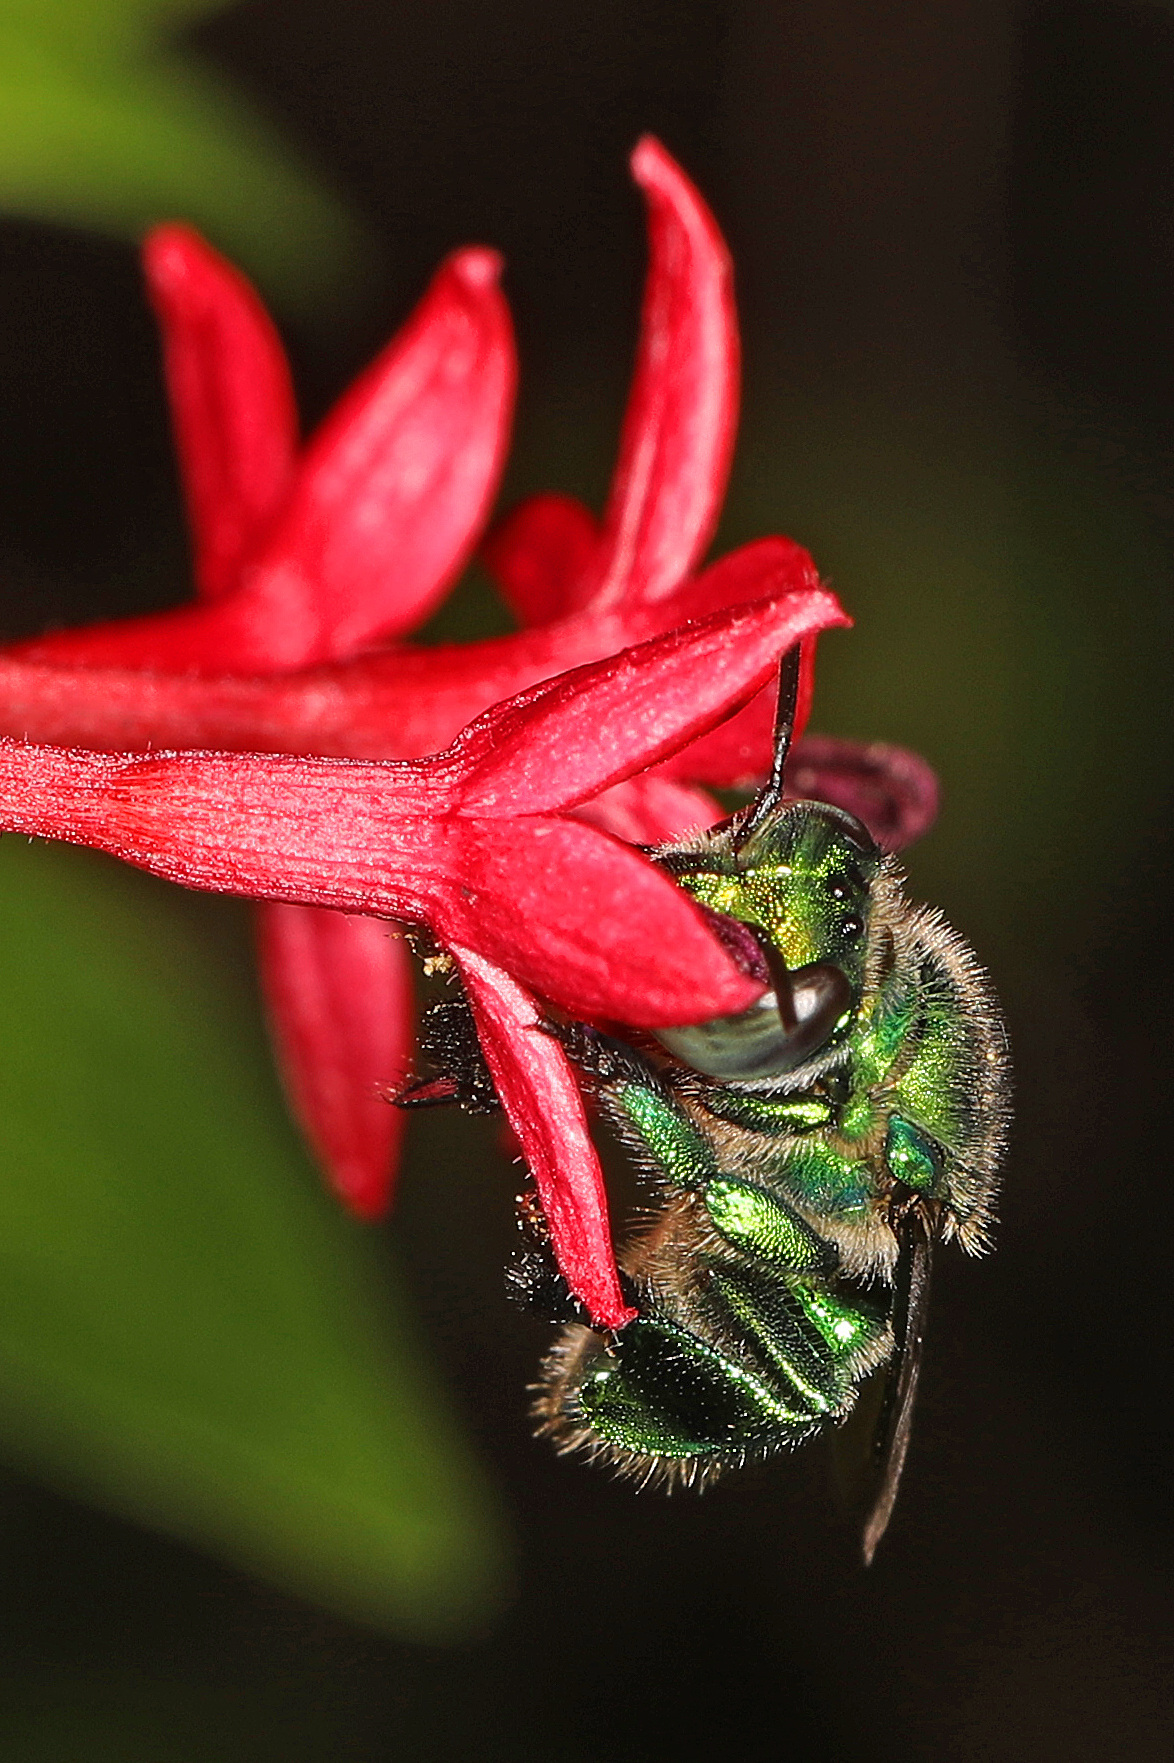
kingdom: Animalia
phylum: Arthropoda
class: Insecta
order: Hymenoptera
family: Apidae
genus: Euglossa
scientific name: Euglossa dilemma
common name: Green orchid bee
